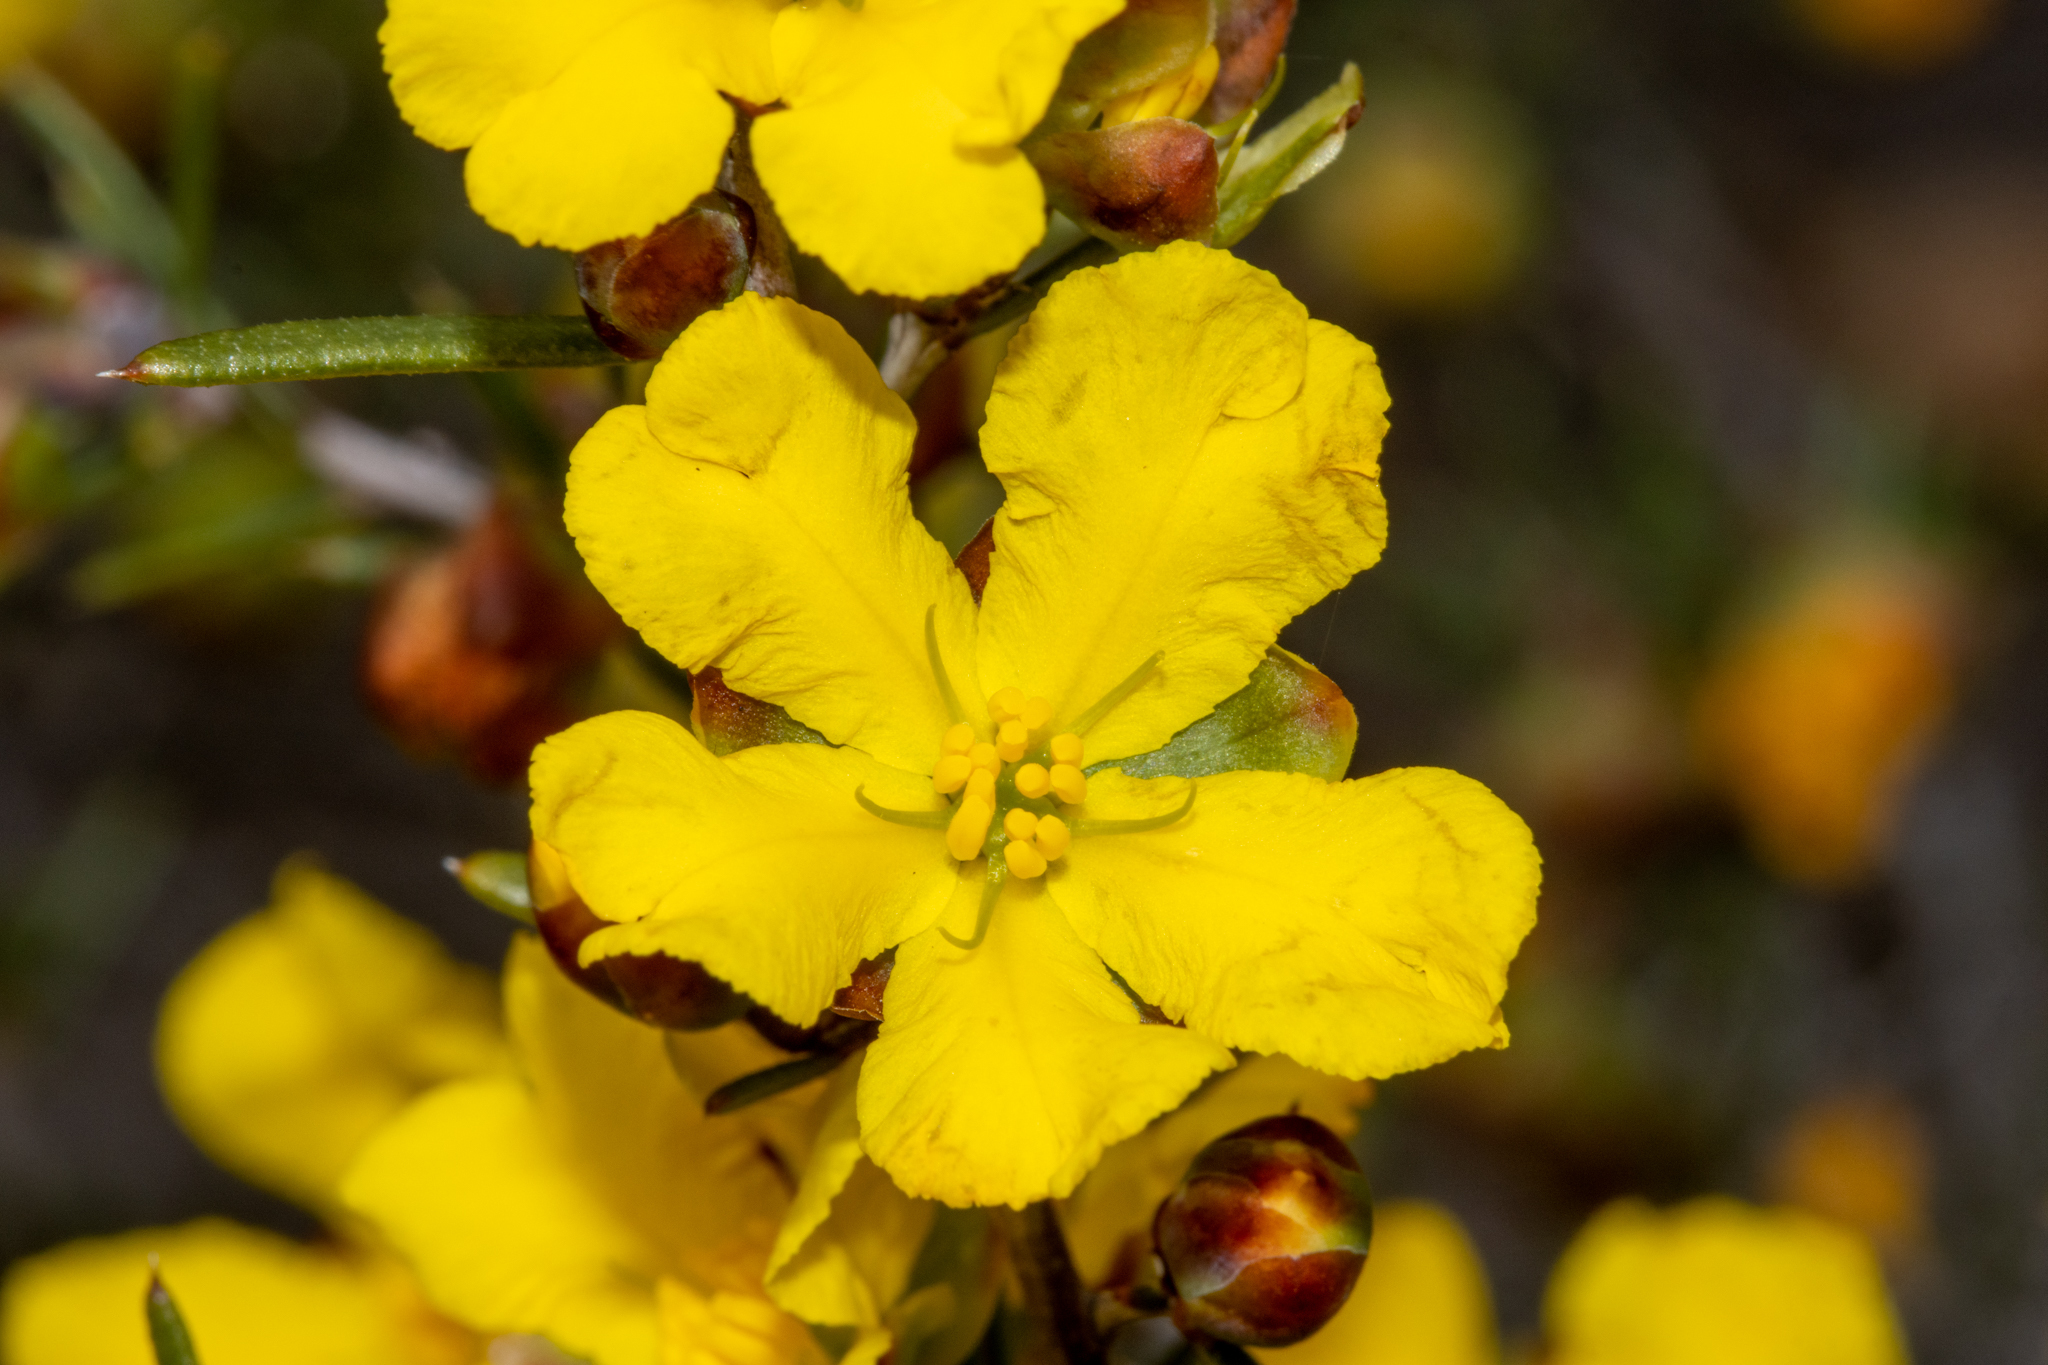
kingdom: Plantae
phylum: Tracheophyta
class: Magnoliopsida
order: Dilleniales
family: Dilleniaceae
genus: Hibbertia
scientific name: Hibbertia exasperata
